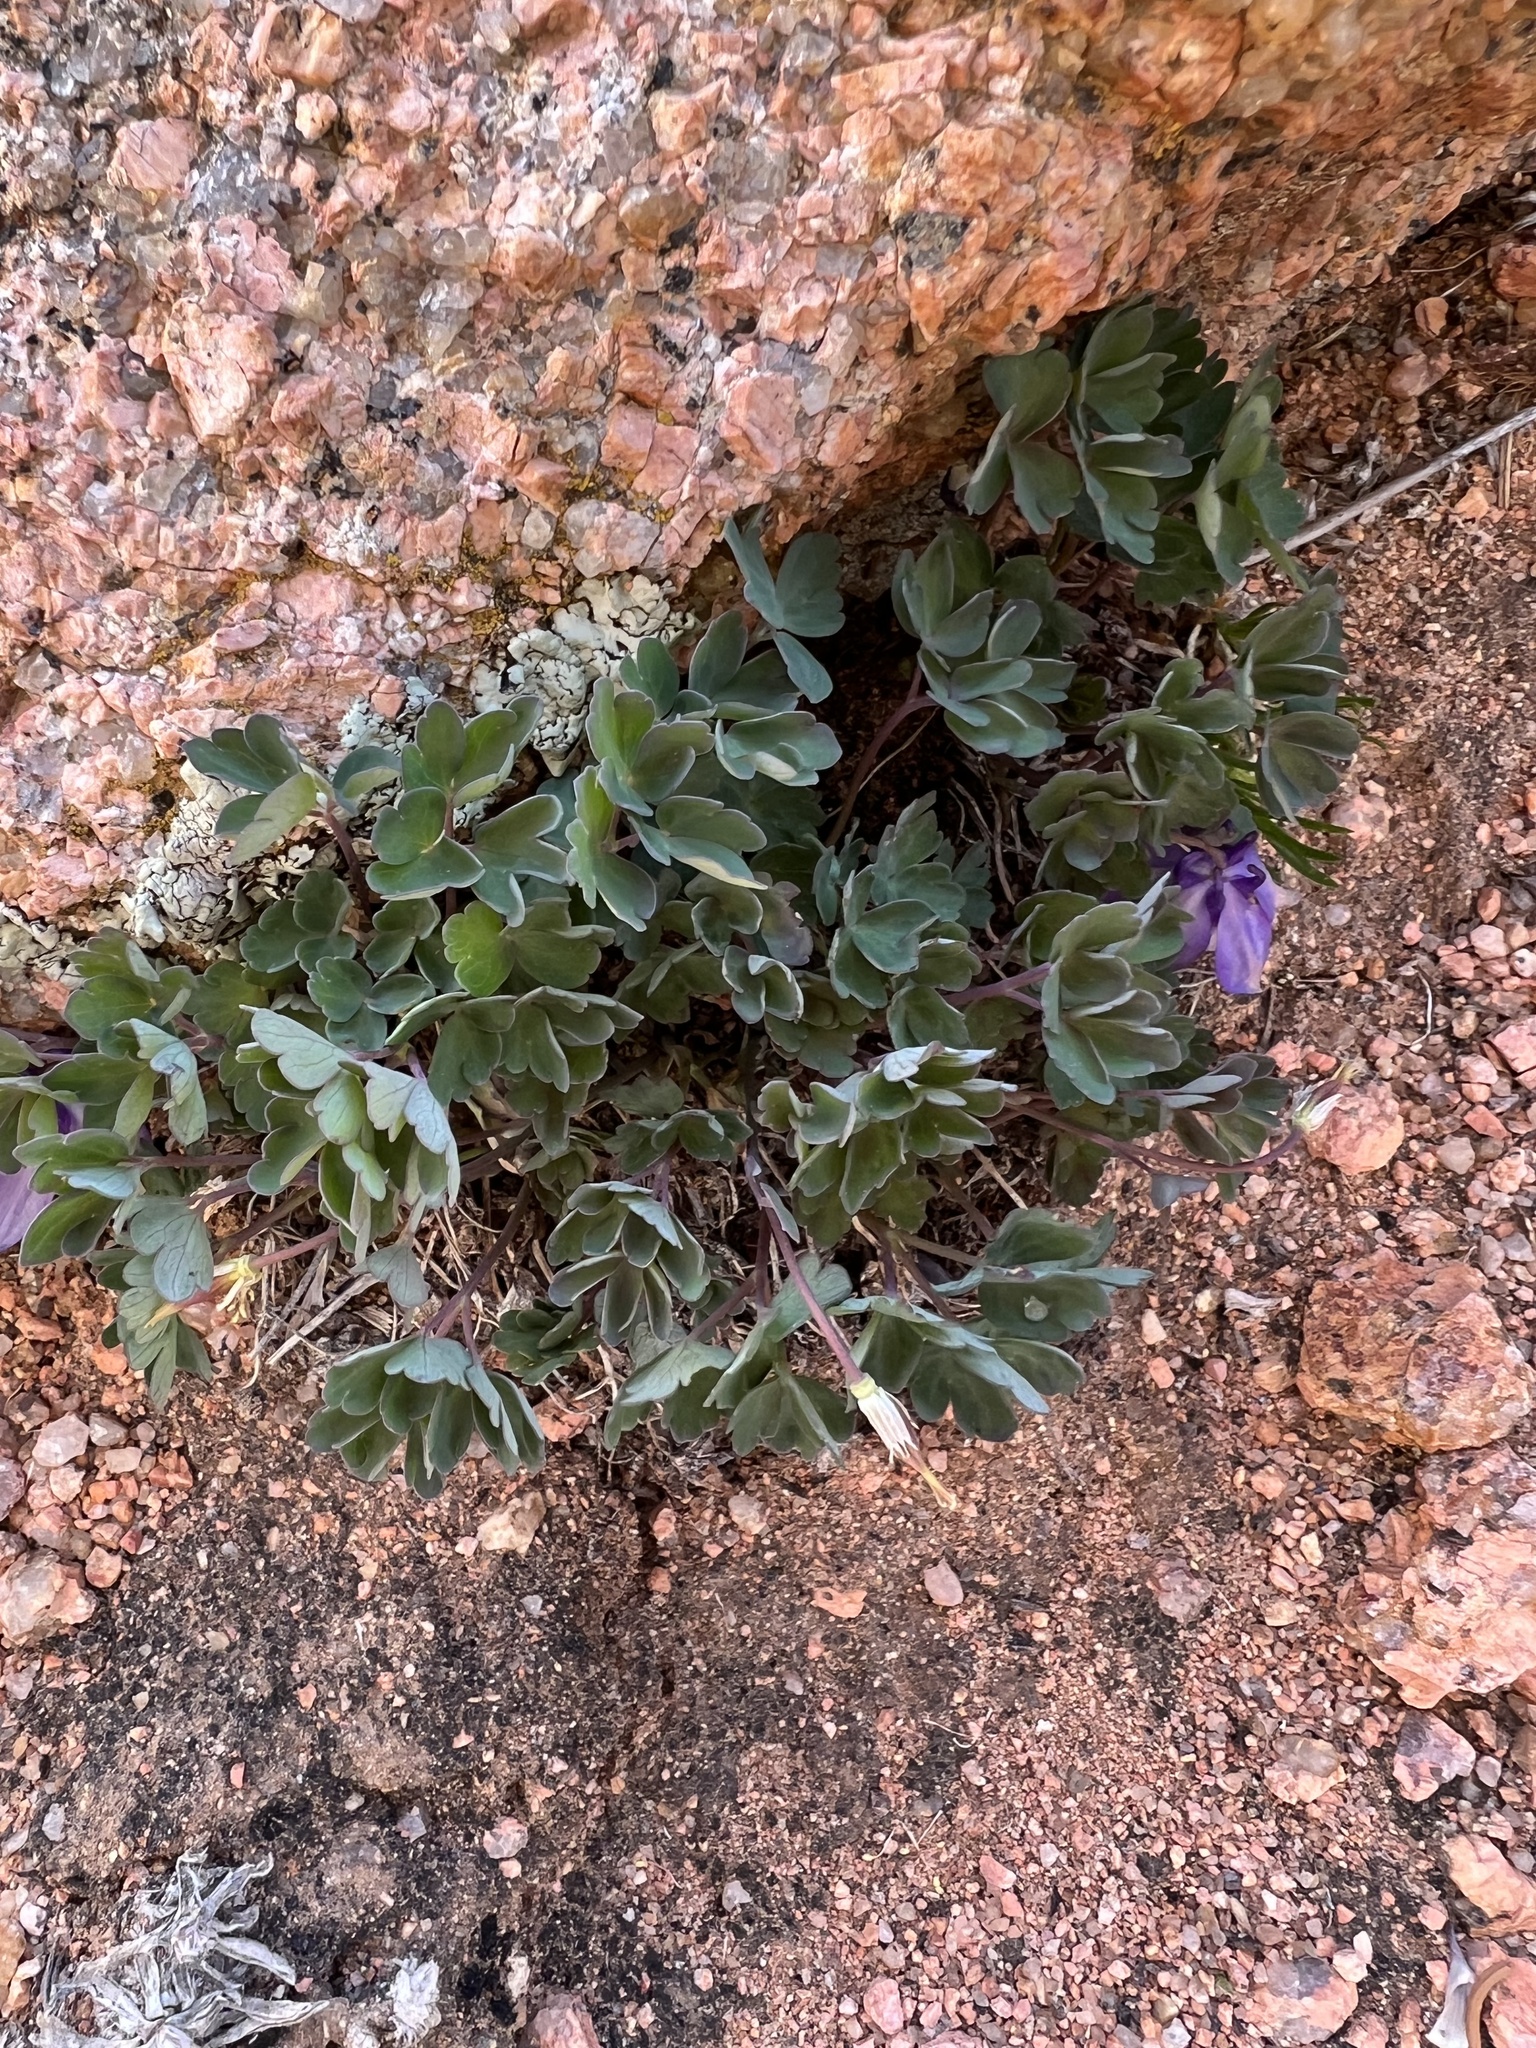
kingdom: Plantae
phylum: Tracheophyta
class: Magnoliopsida
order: Ranunculales
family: Ranunculaceae
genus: Aquilegia
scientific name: Aquilegia saximontana
